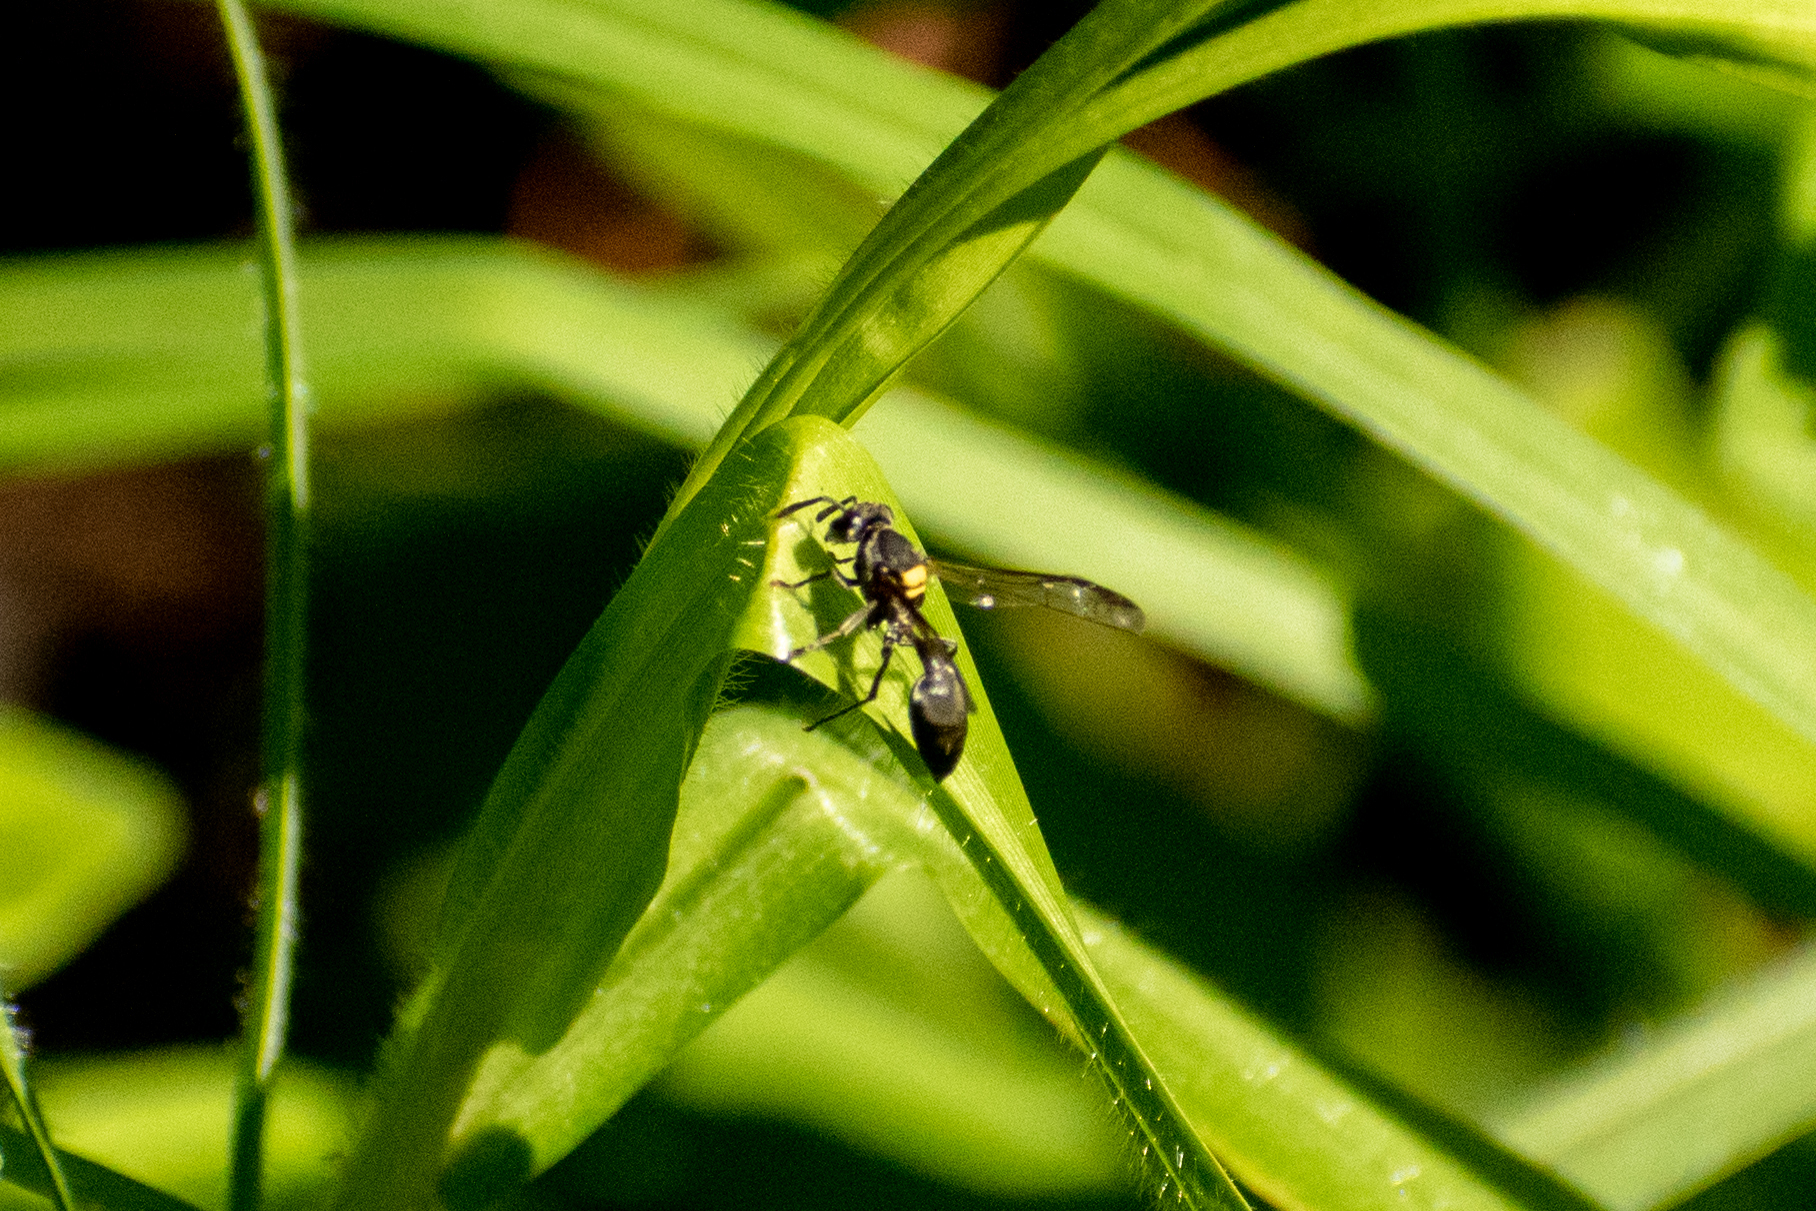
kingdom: Animalia
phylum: Arthropoda
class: Insecta
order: Hymenoptera
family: Eumenidae
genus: Polybia
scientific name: Polybia scutellaris
